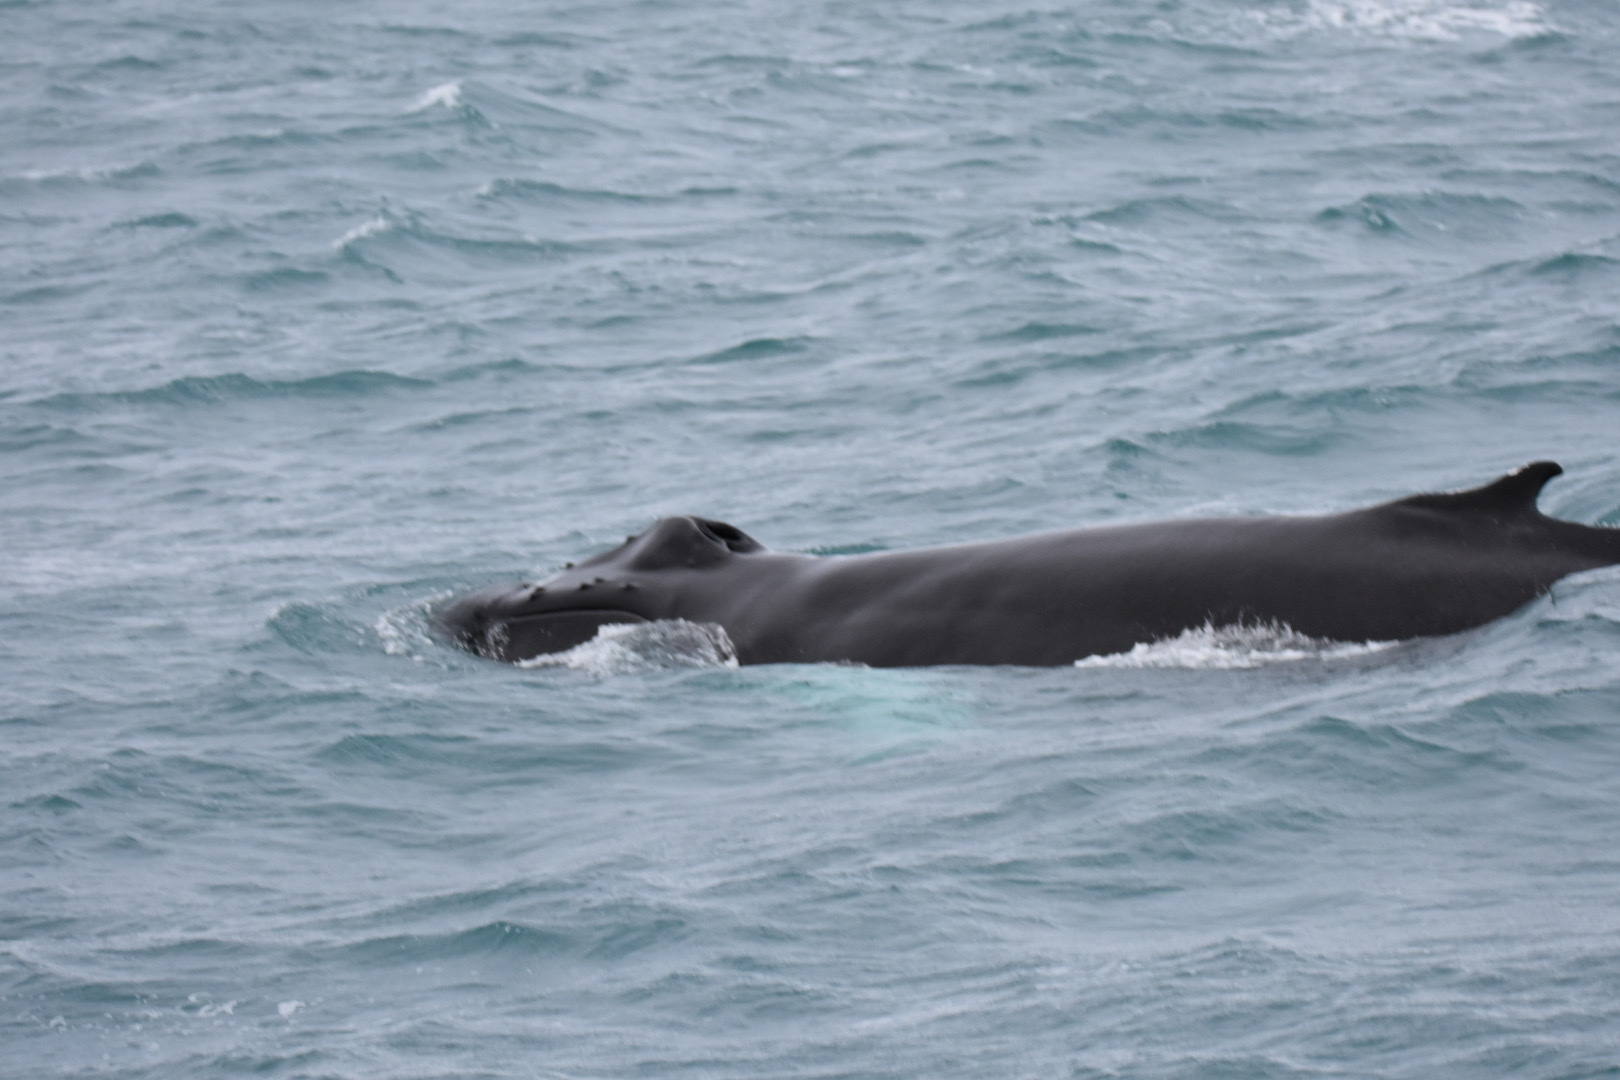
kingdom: Animalia
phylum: Chordata
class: Mammalia
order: Cetacea
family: Balaenopteridae
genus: Megaptera
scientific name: Megaptera novaeangliae
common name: Humpback whale
